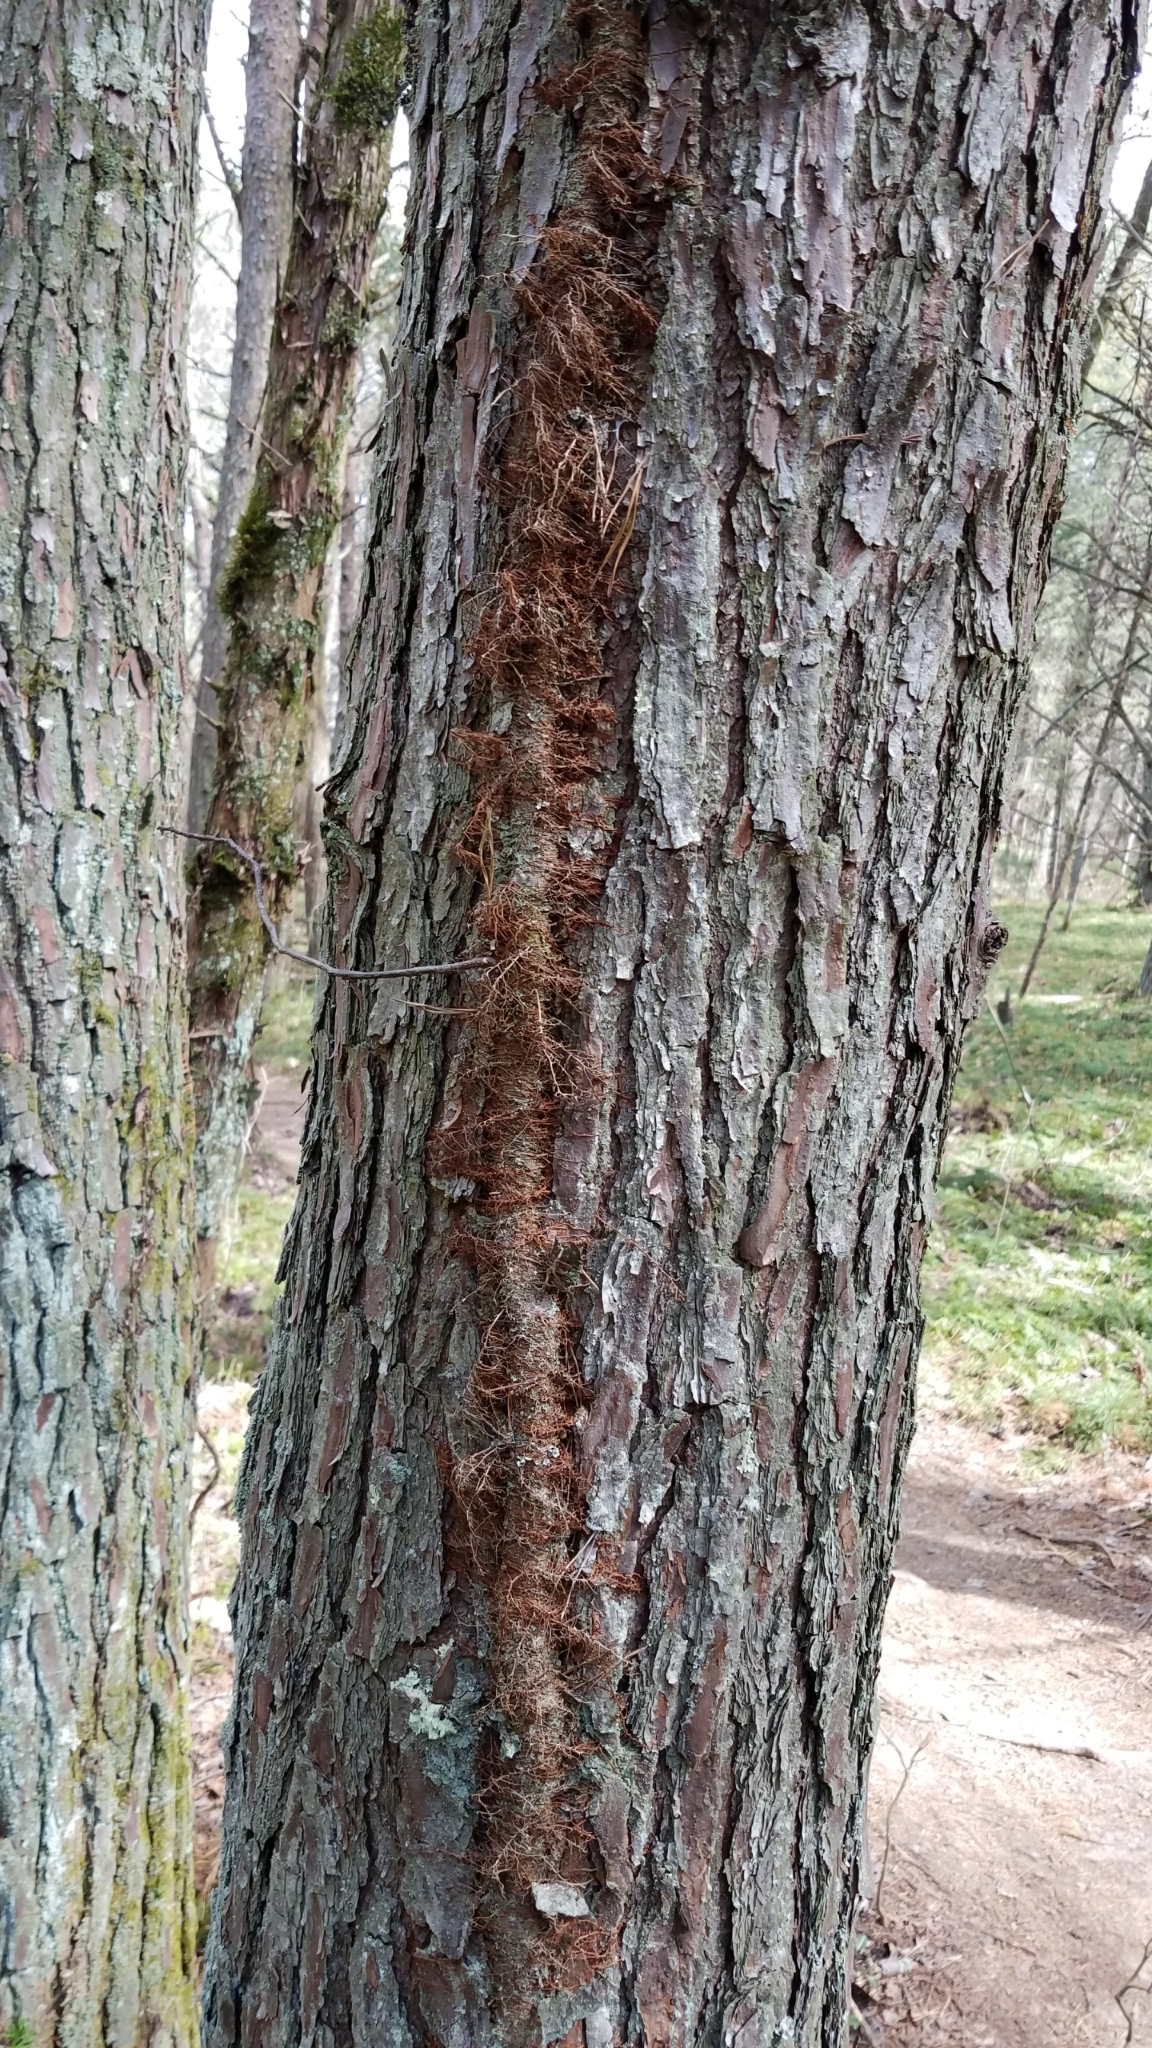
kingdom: Plantae
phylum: Tracheophyta
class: Magnoliopsida
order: Sapindales
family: Anacardiaceae
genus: Toxicodendron
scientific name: Toxicodendron radicans
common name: Poison ivy
